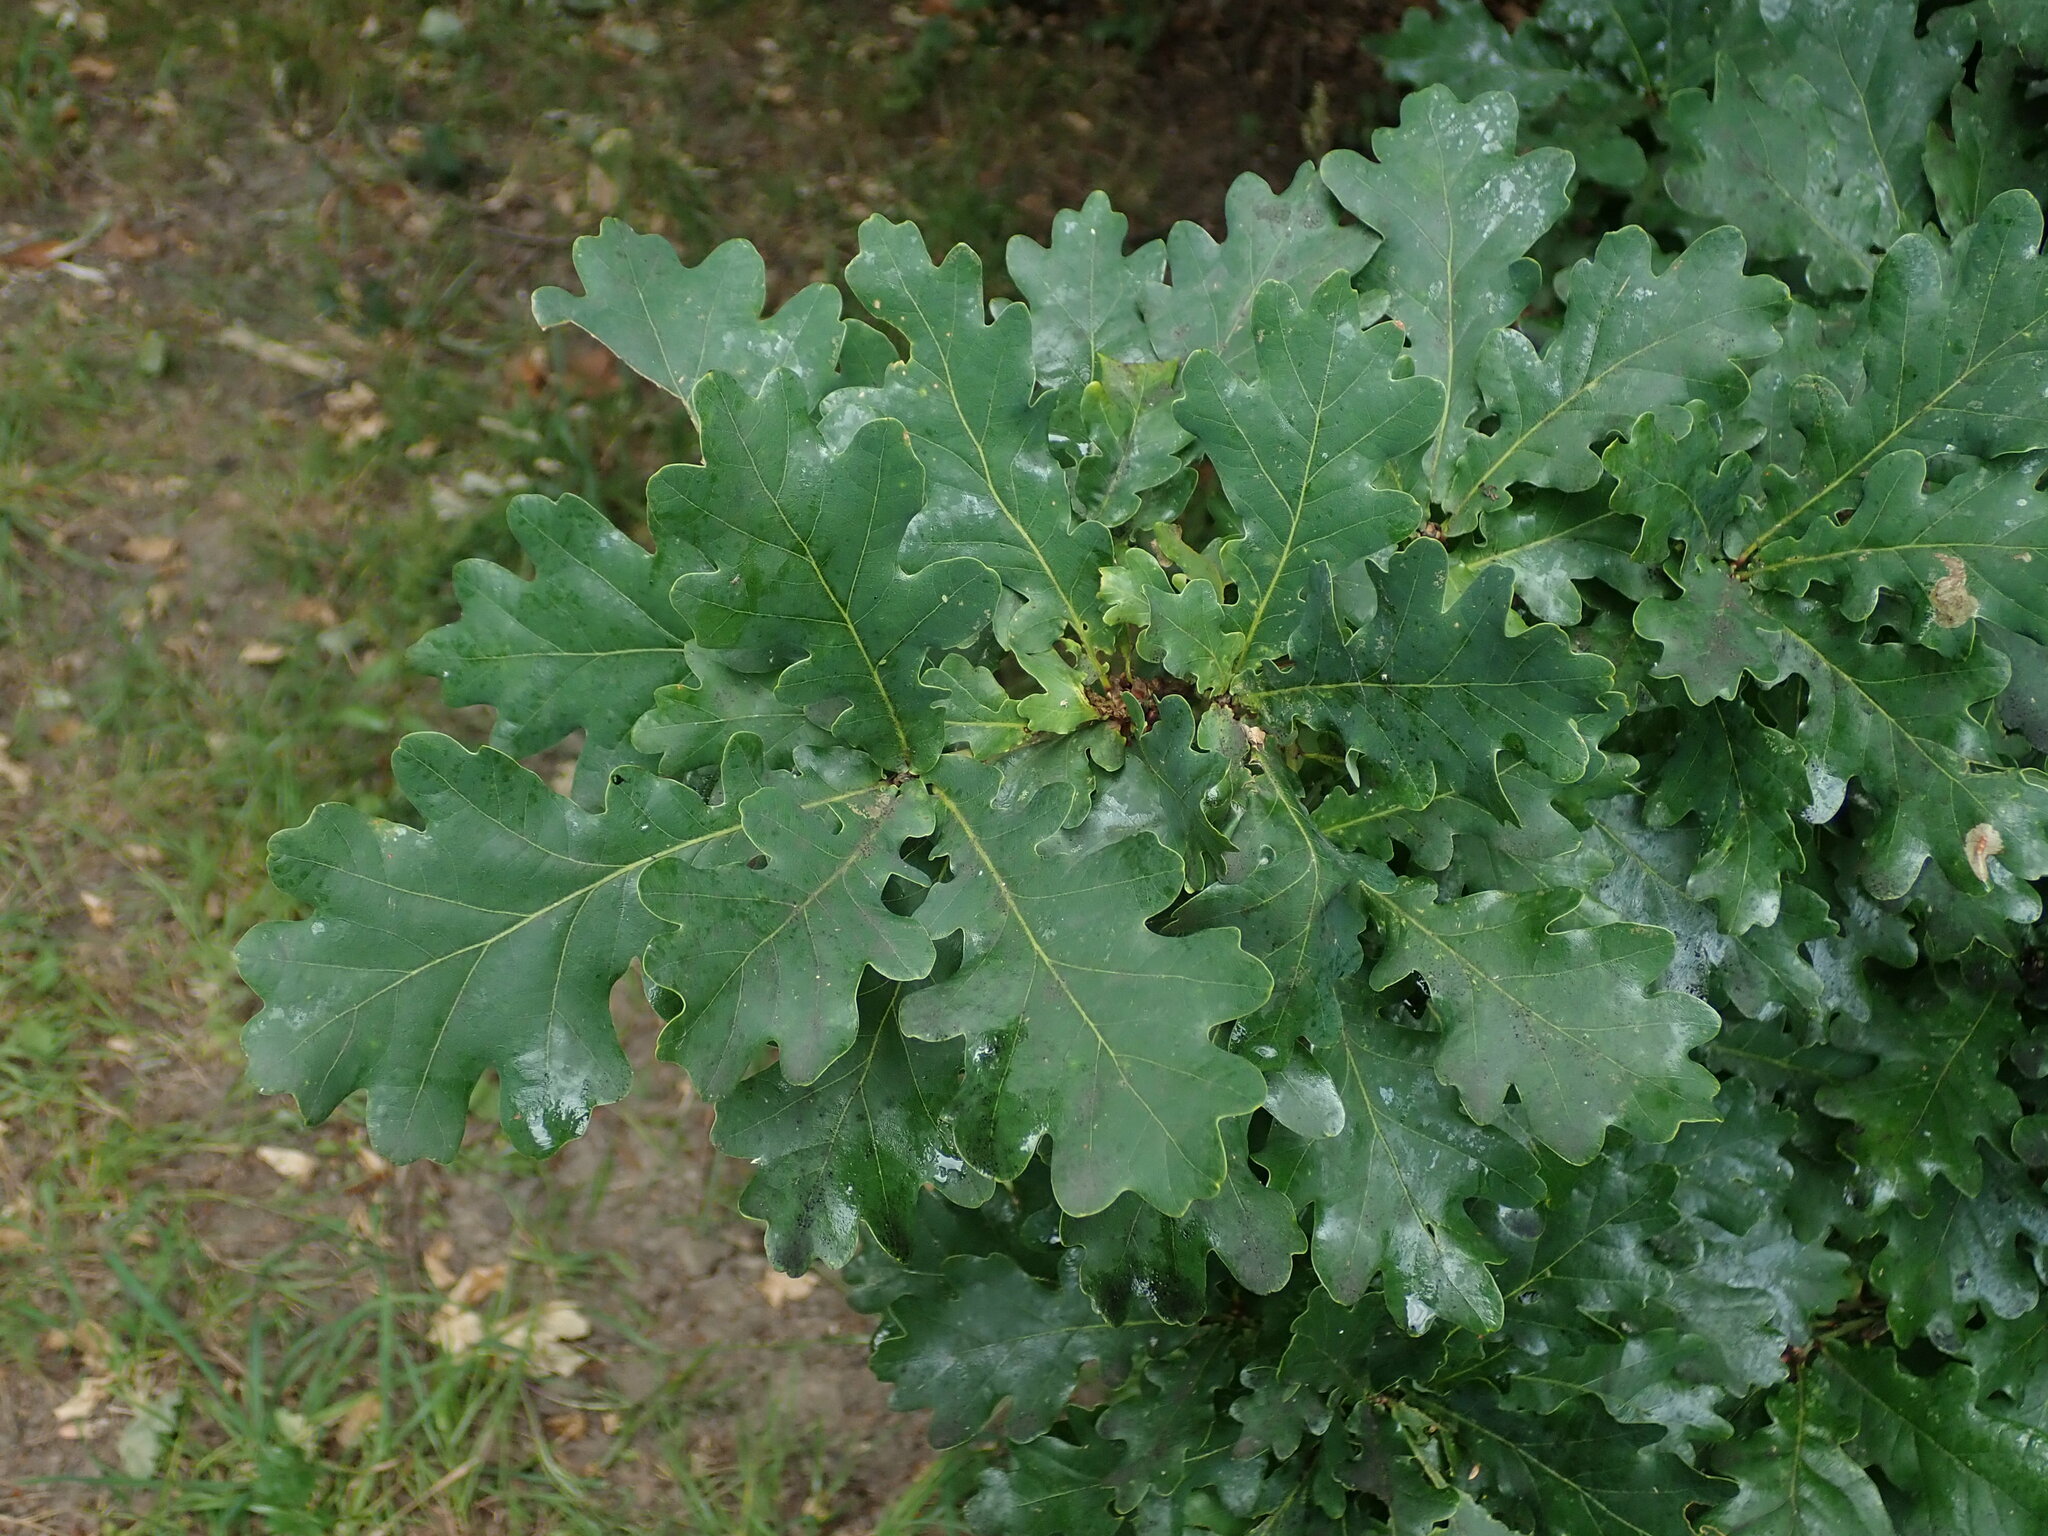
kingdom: Plantae
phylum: Tracheophyta
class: Magnoliopsida
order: Fagales
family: Fagaceae
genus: Quercus
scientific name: Quercus robur
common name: Pedunculate oak
